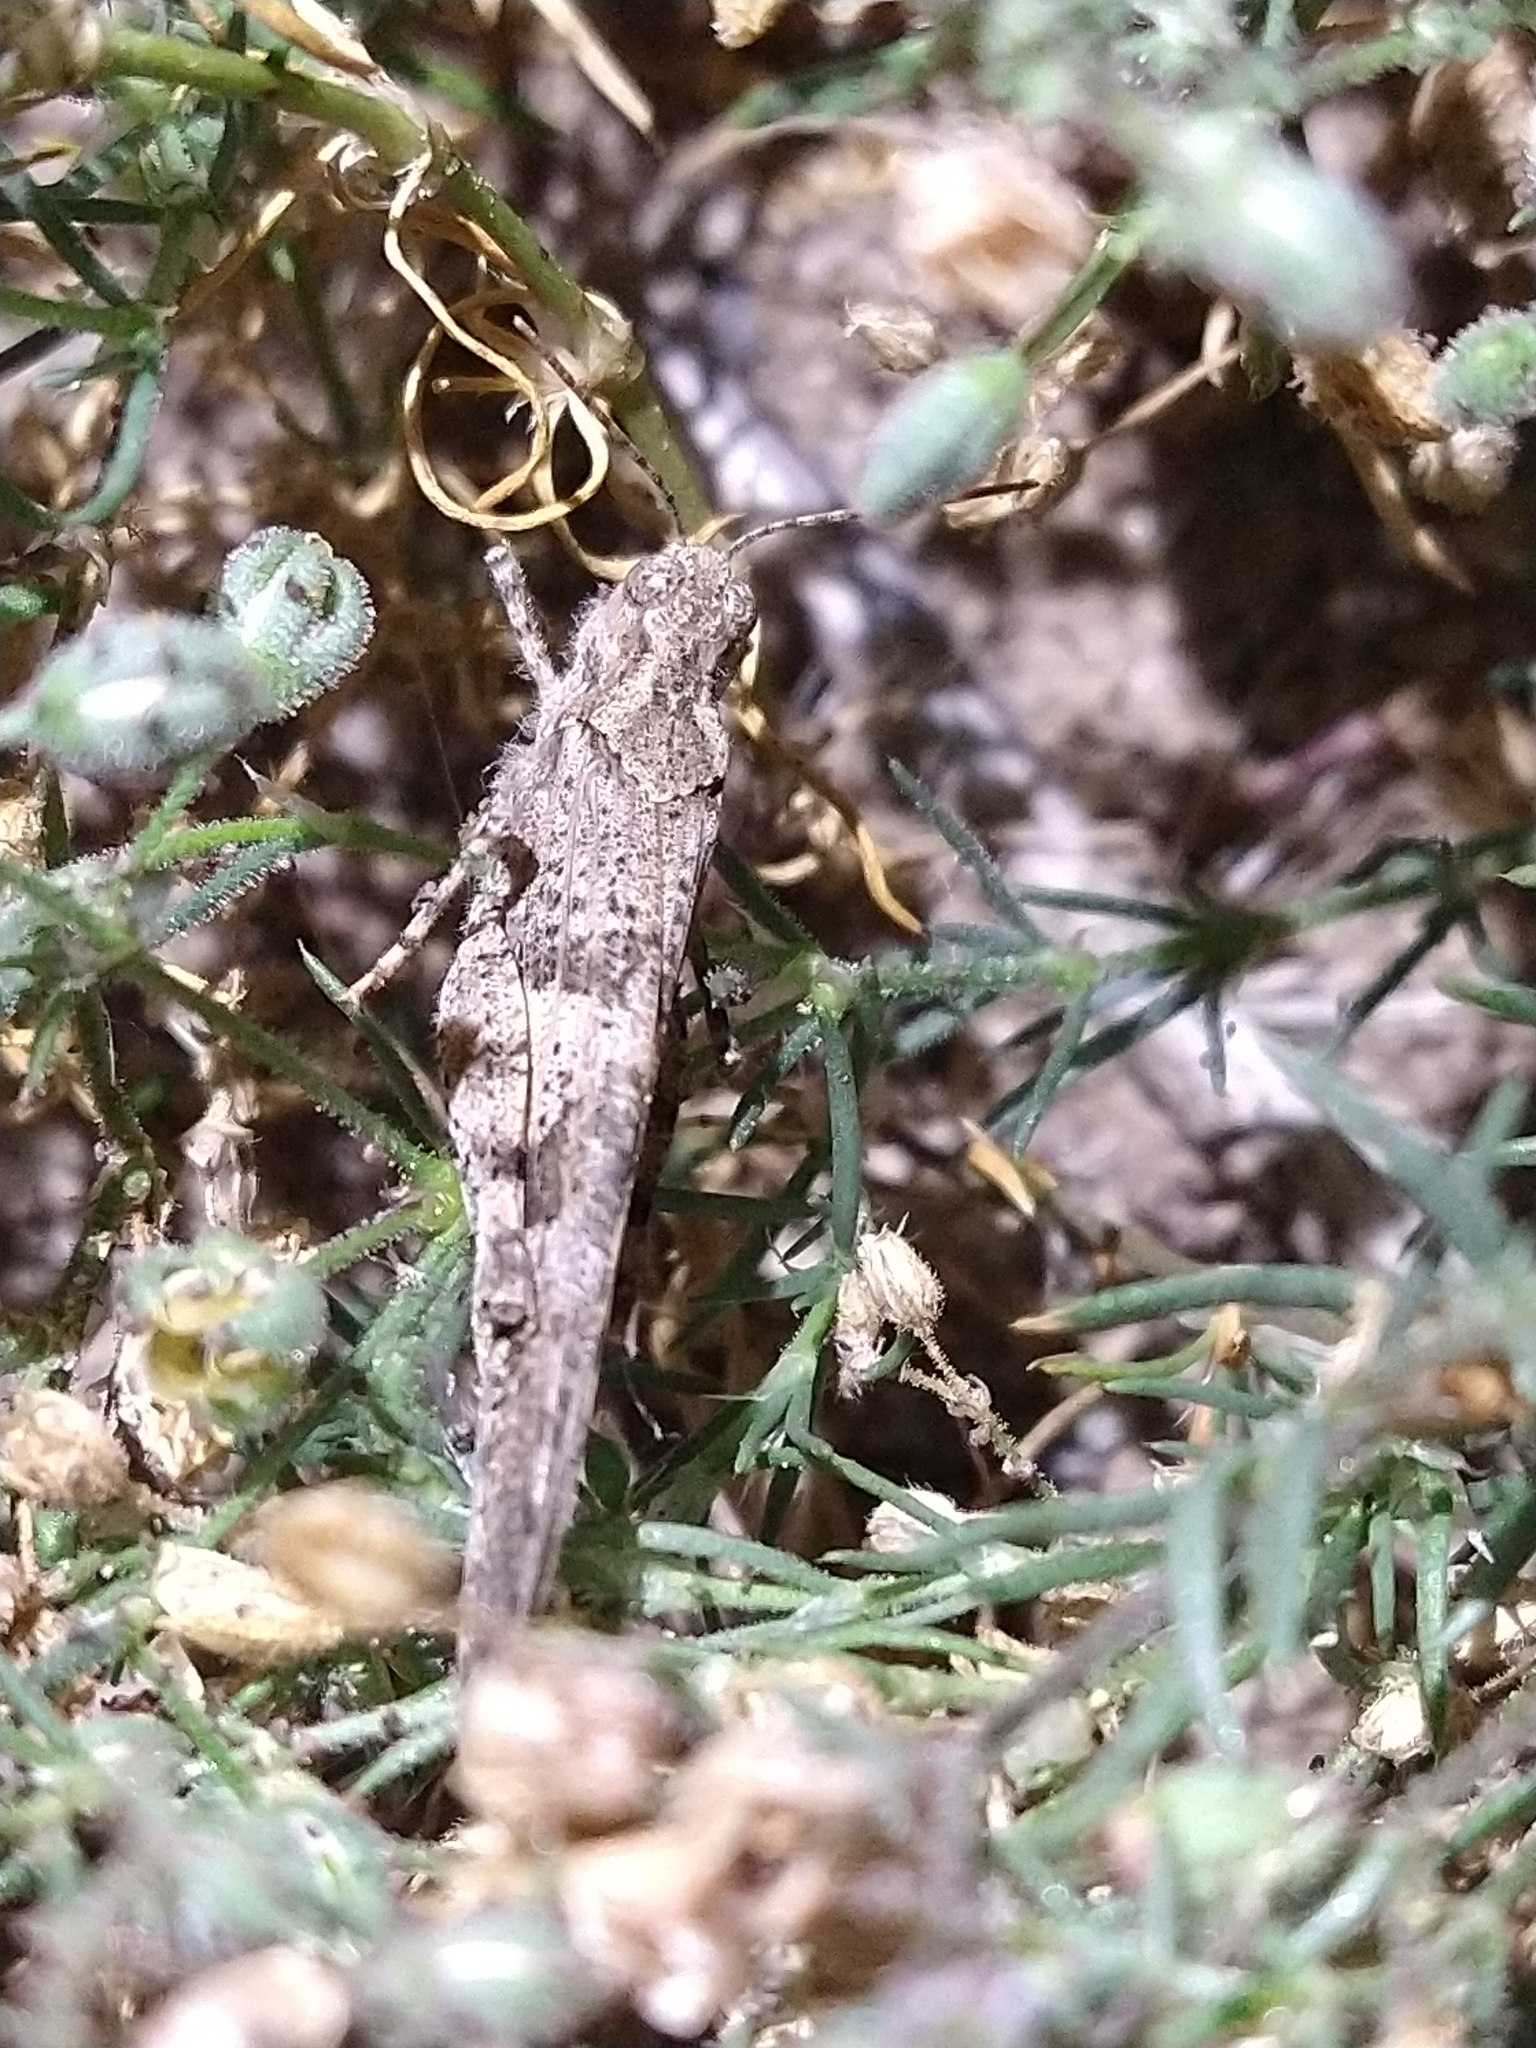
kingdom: Animalia
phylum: Arthropoda
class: Insecta
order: Orthoptera
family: Acrididae
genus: Trimerotropis
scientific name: Trimerotropis pallidipennis
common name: Pallid-winged grasshopper
